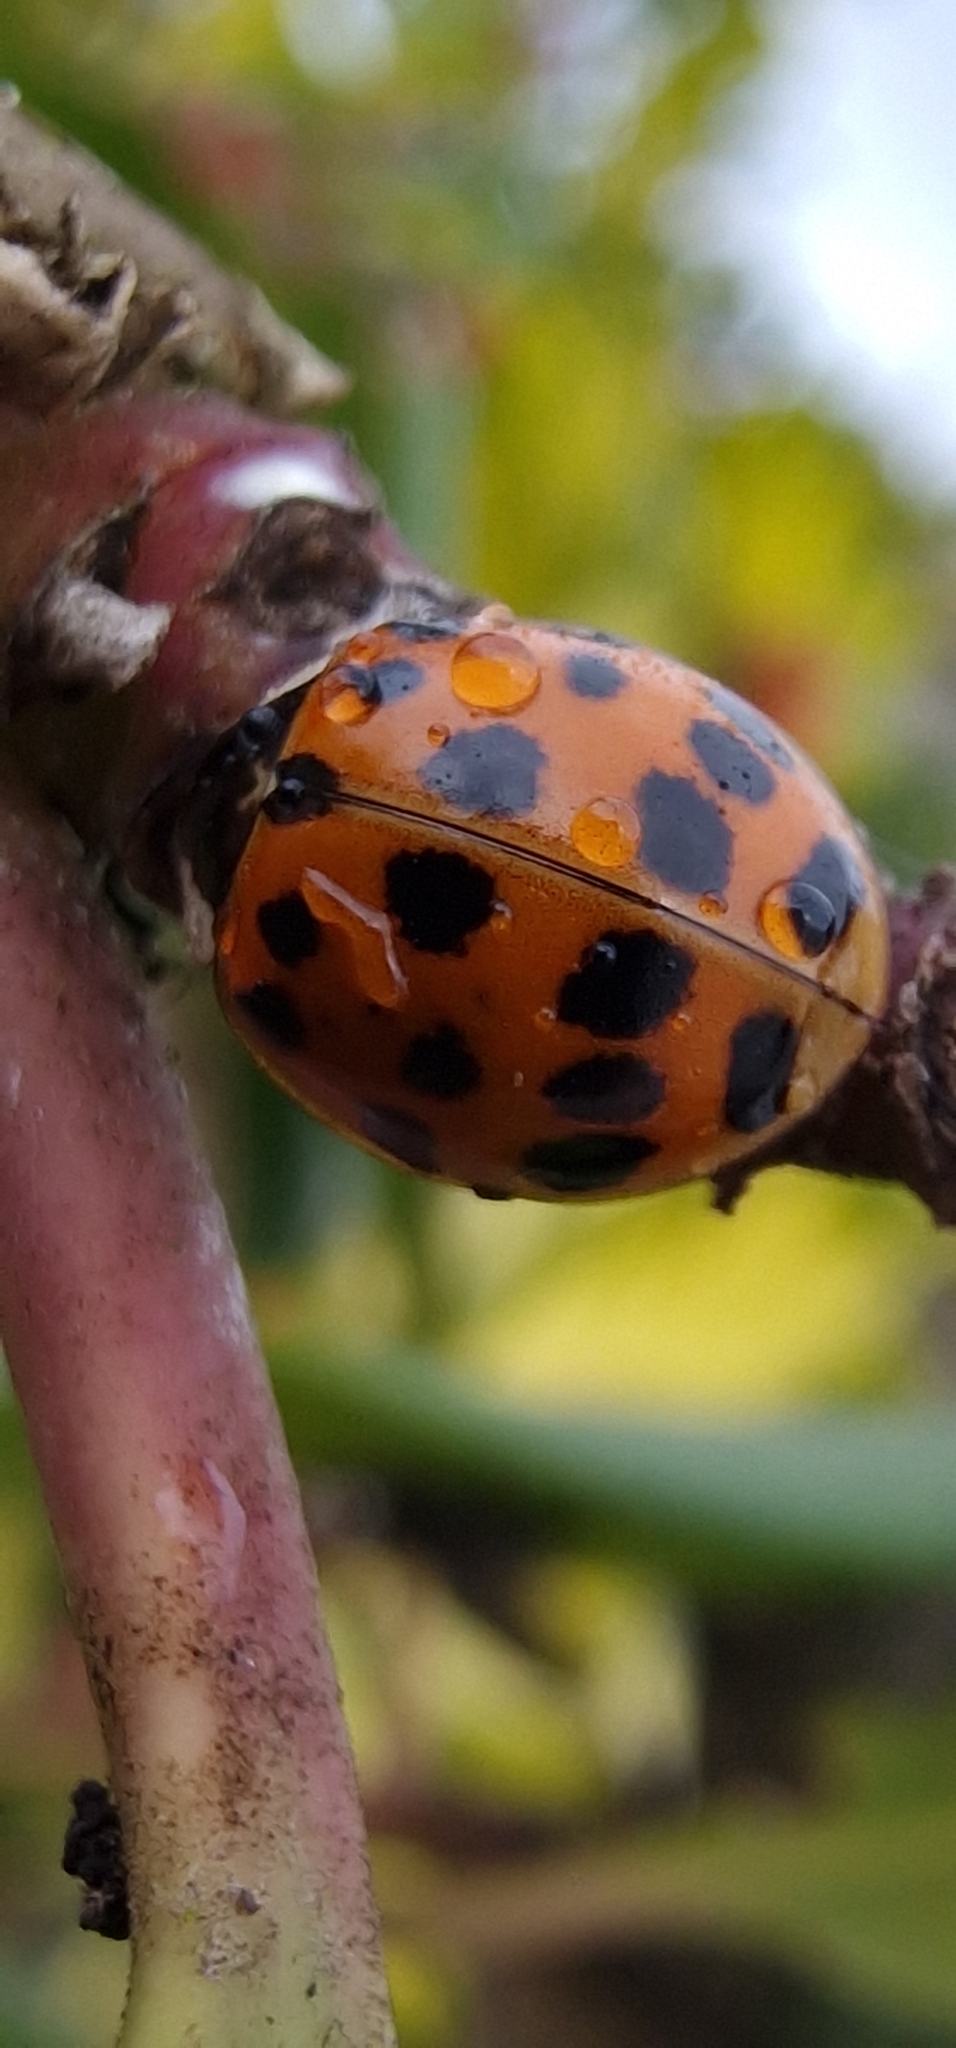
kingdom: Animalia
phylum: Arthropoda
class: Insecta
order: Coleoptera
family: Coccinellidae
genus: Harmonia
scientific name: Harmonia axyridis
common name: Harlequin ladybird
